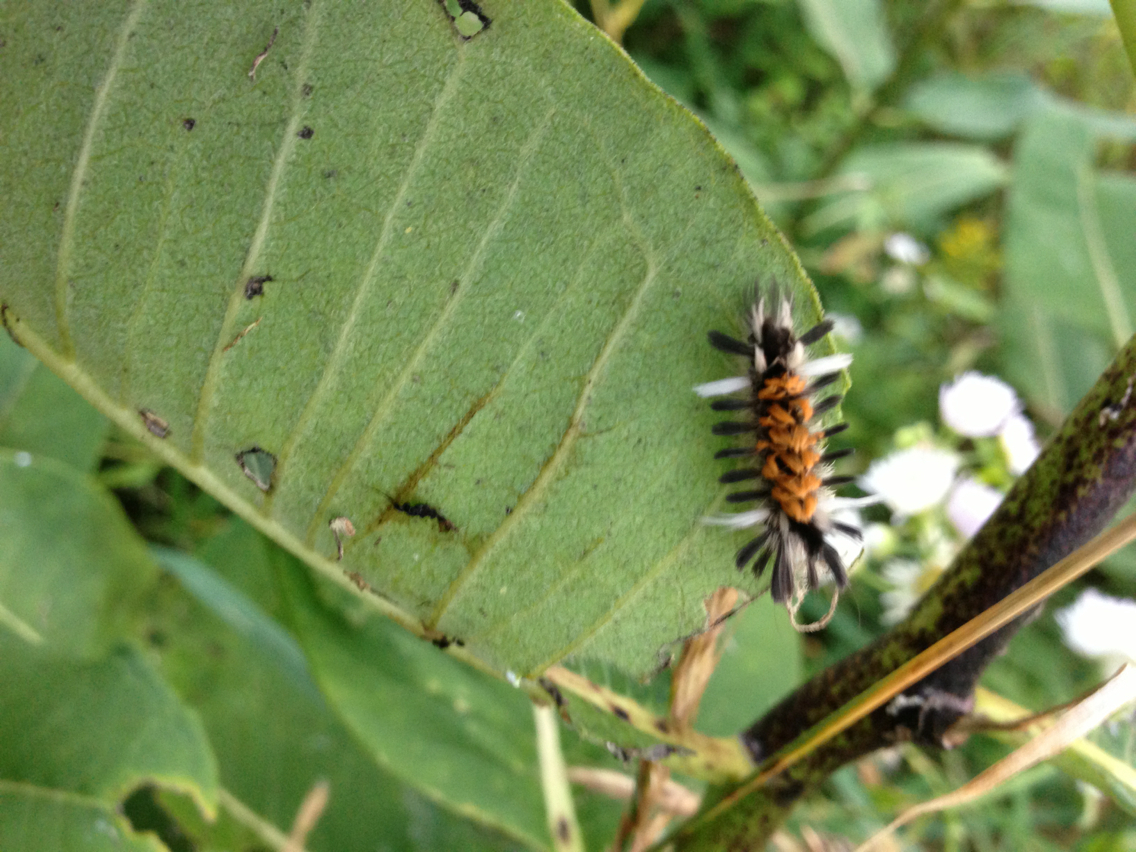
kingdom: Animalia
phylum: Arthropoda
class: Insecta
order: Lepidoptera
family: Erebidae
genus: Euchaetes
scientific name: Euchaetes egle
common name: Milkweed tussock moth
